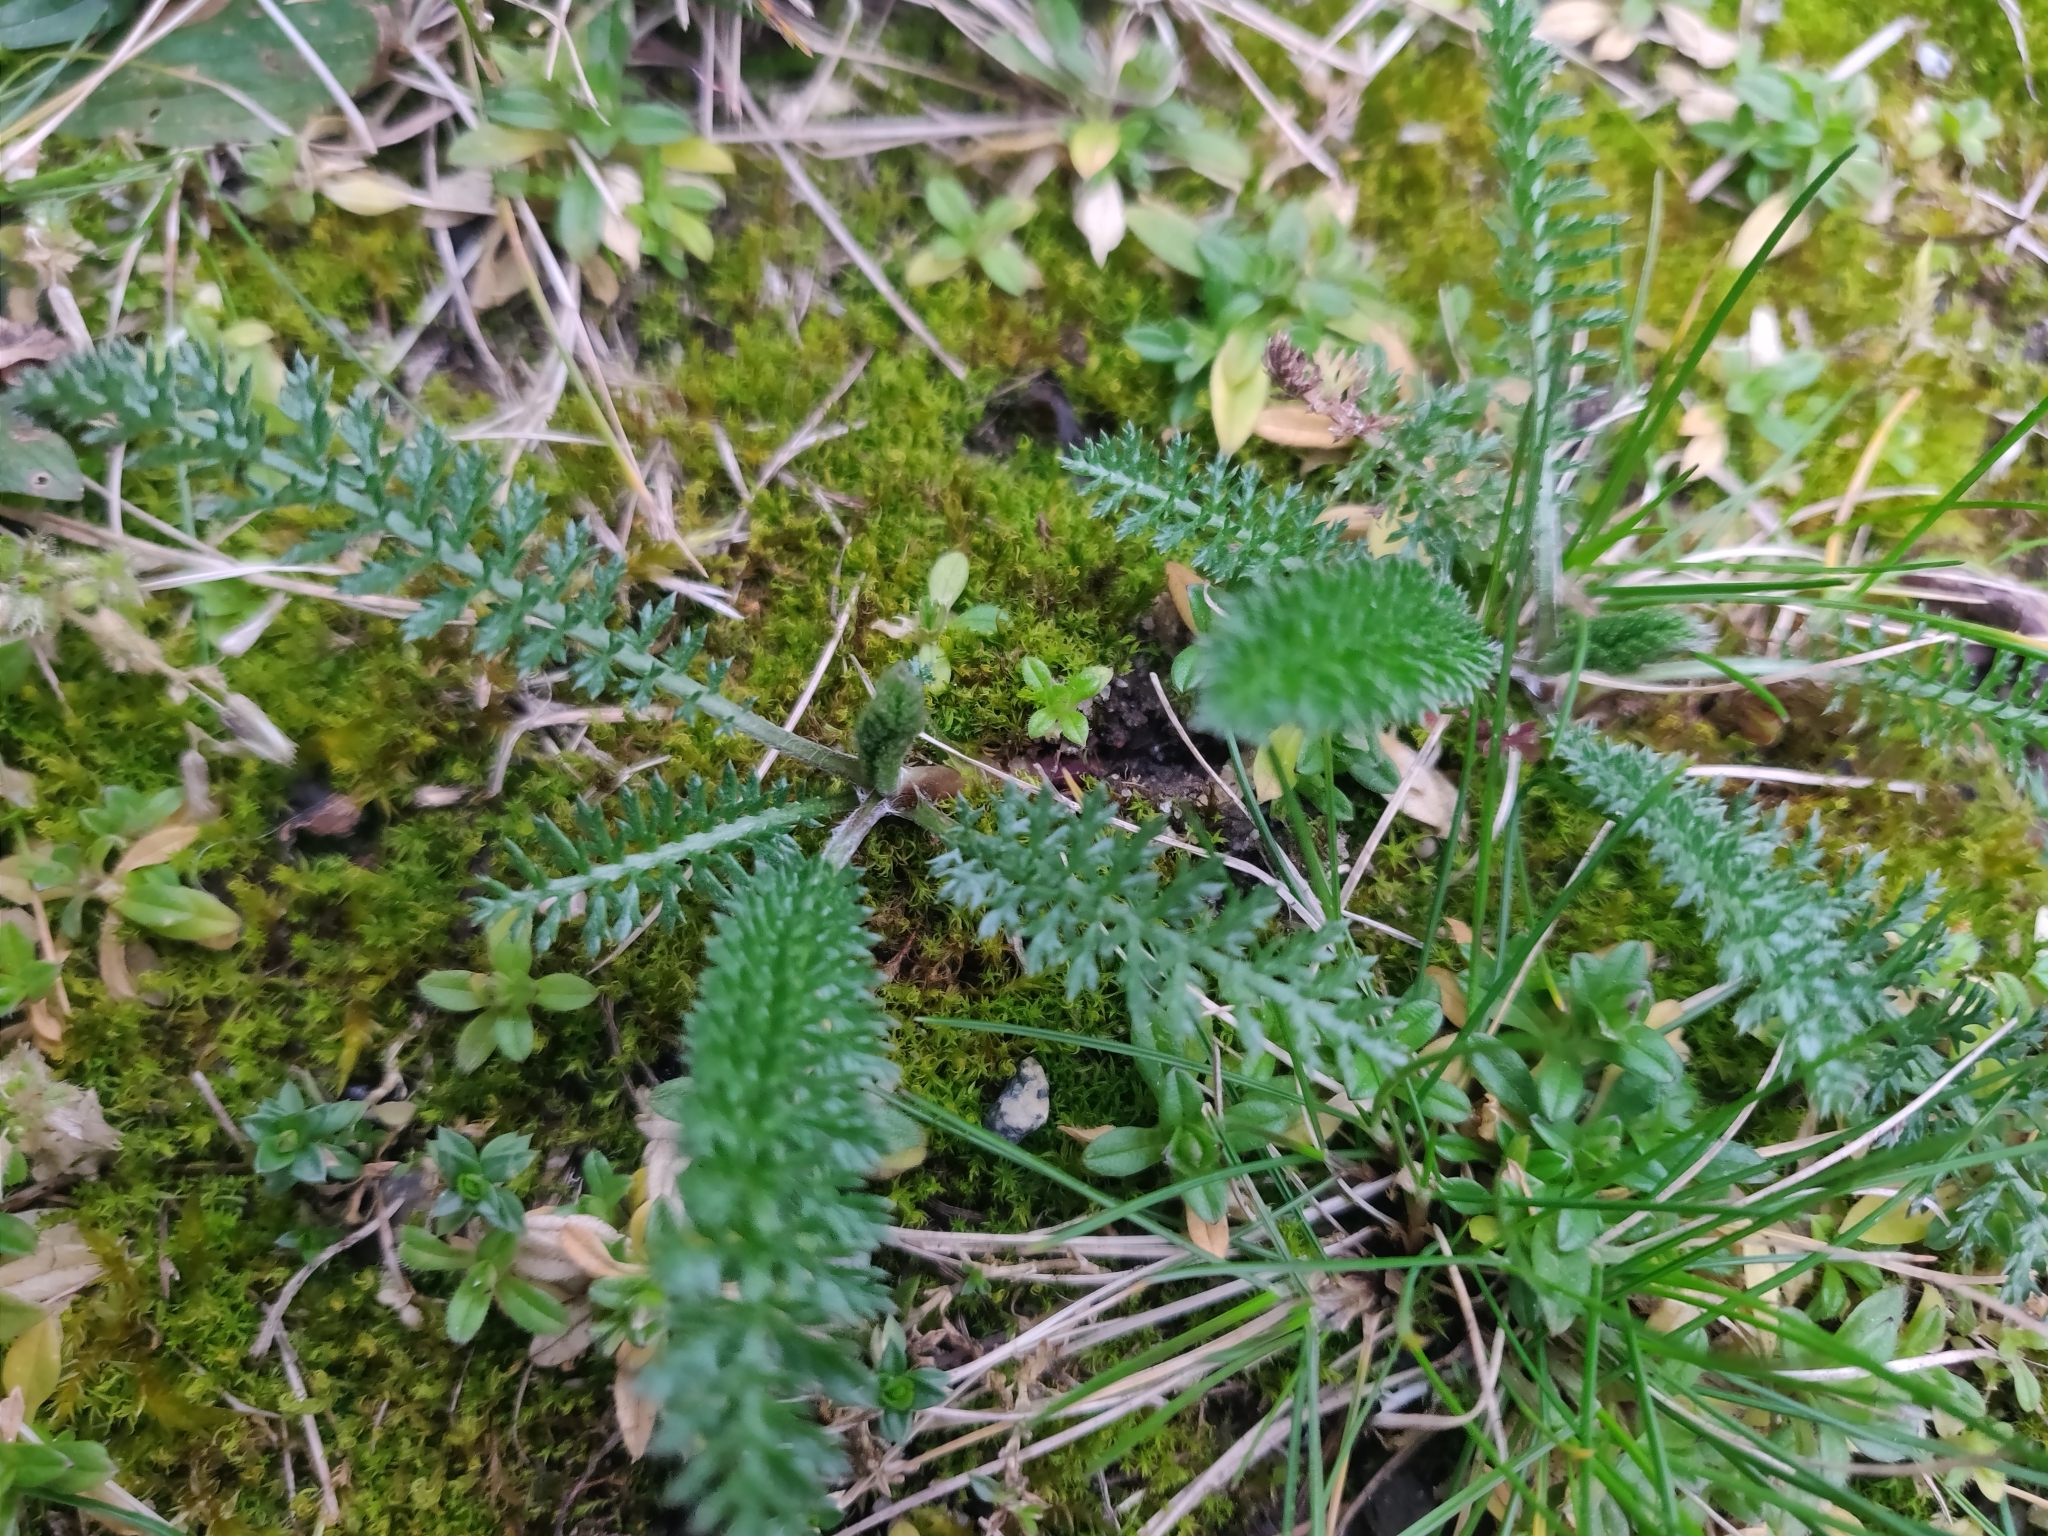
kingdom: Plantae
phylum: Tracheophyta
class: Magnoliopsida
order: Asterales
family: Asteraceae
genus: Achillea
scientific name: Achillea millefolium
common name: Yarrow
